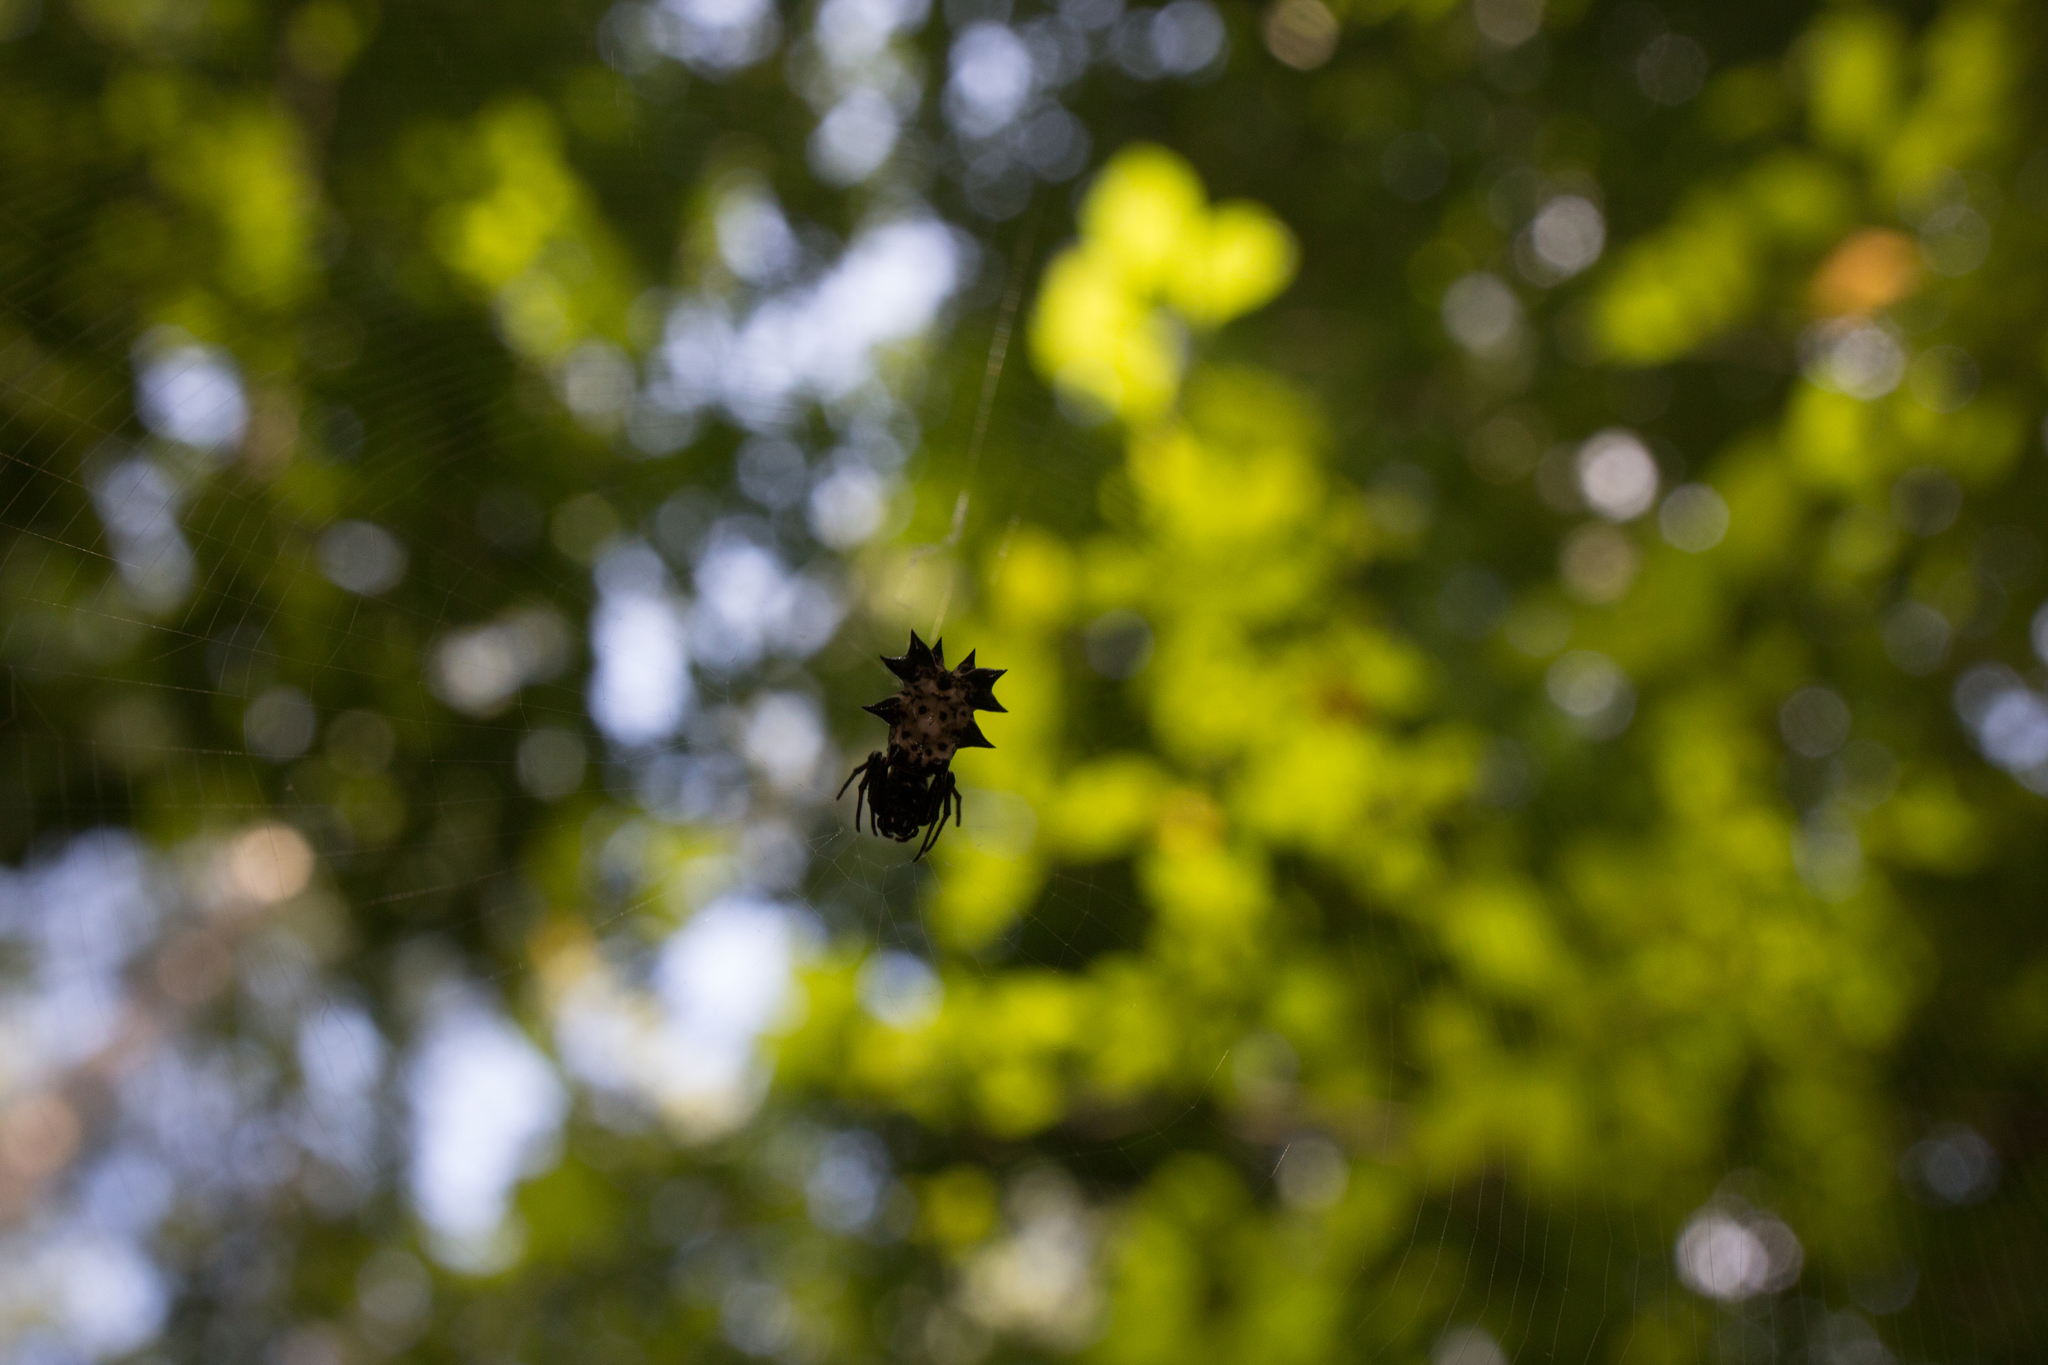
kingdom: Animalia
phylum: Arthropoda
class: Arachnida
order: Araneae
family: Araneidae
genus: Micrathena
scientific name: Micrathena gracilis
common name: Orb weavers
